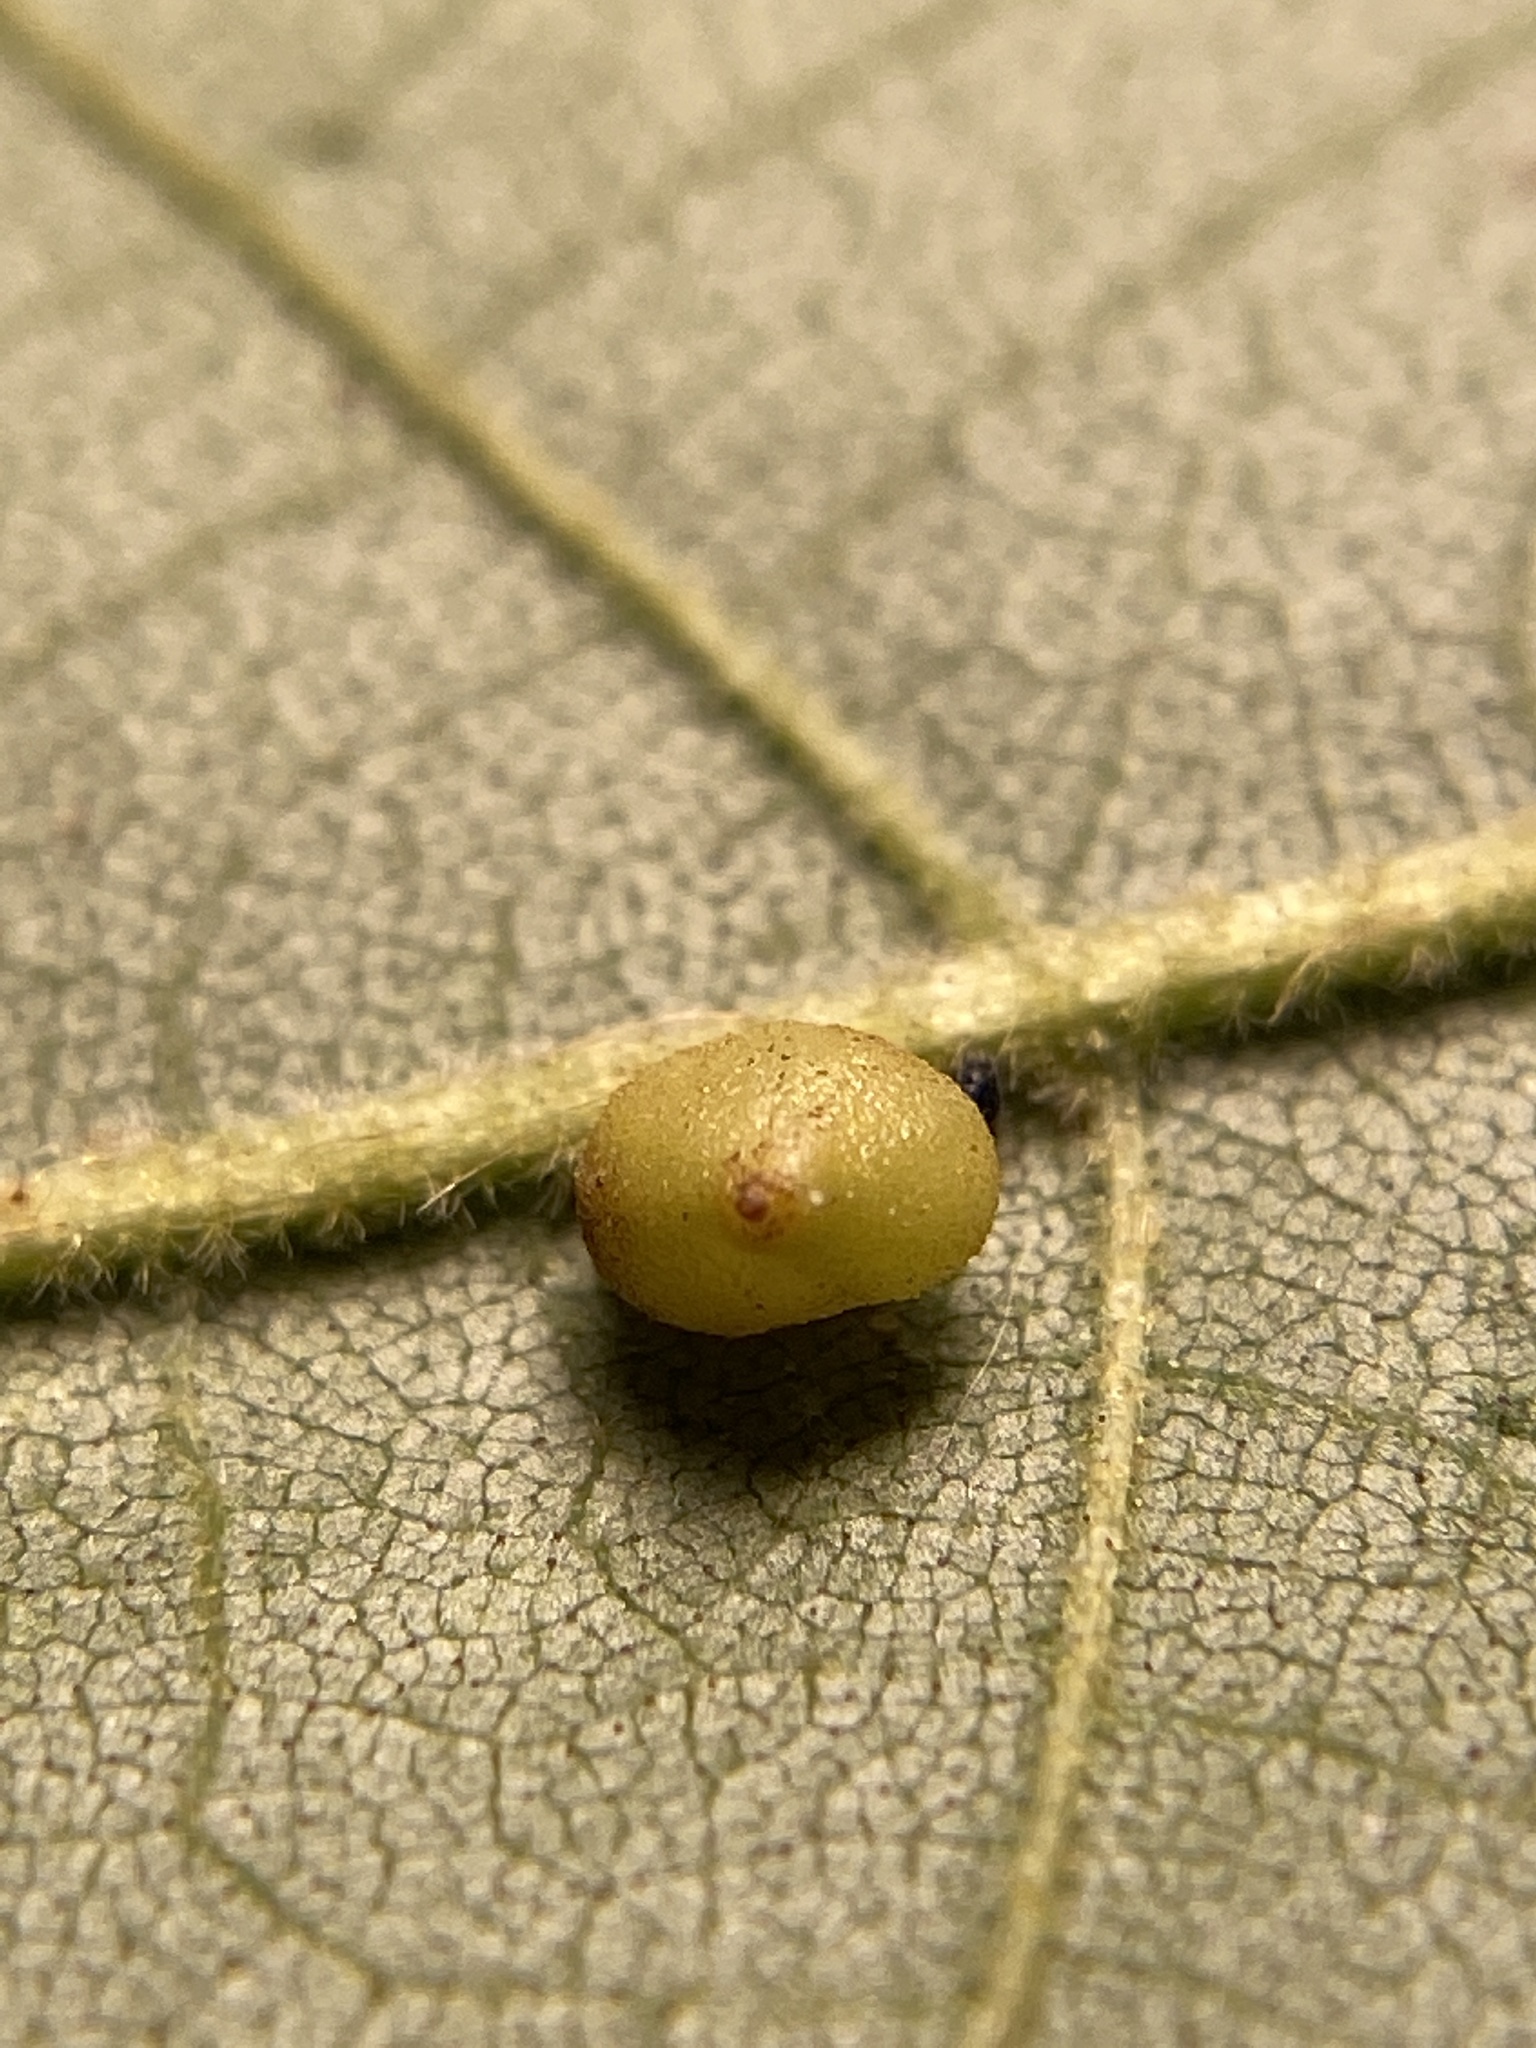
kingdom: Animalia
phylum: Arthropoda
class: Insecta
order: Diptera
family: Cecidomyiidae
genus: Caryomyia
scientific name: Caryomyia caryae
